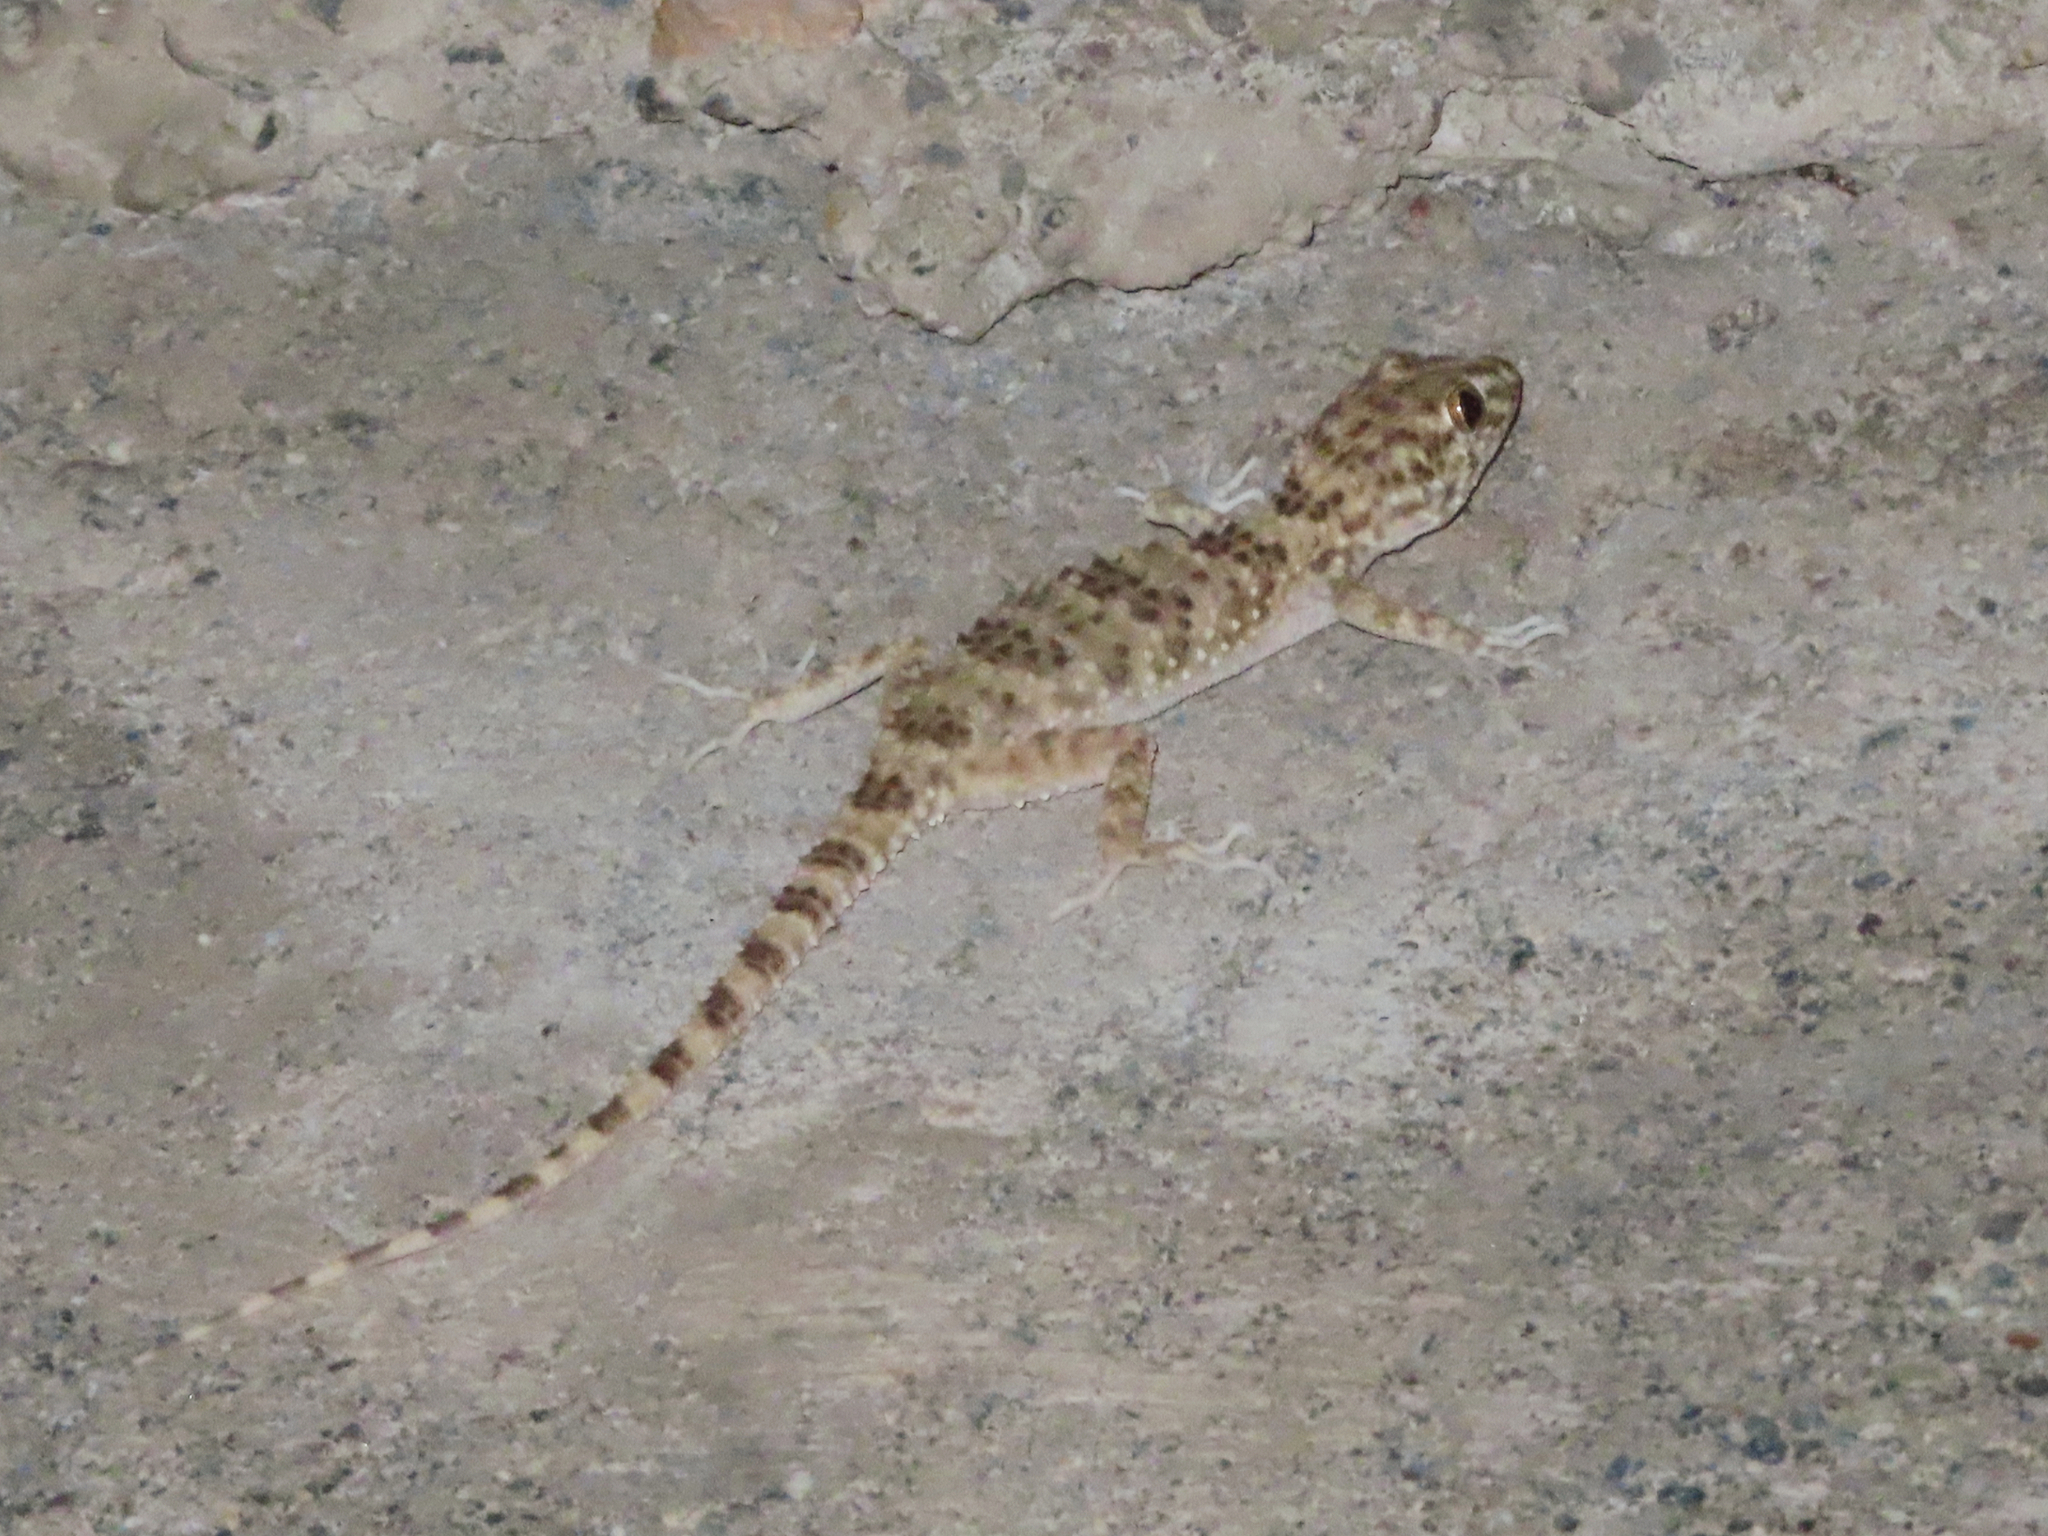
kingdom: Animalia
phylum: Chordata
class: Squamata
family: Gekkonidae
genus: Tenuidactylus
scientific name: Tenuidactylus caspius
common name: Caspian bent-toed gecko
